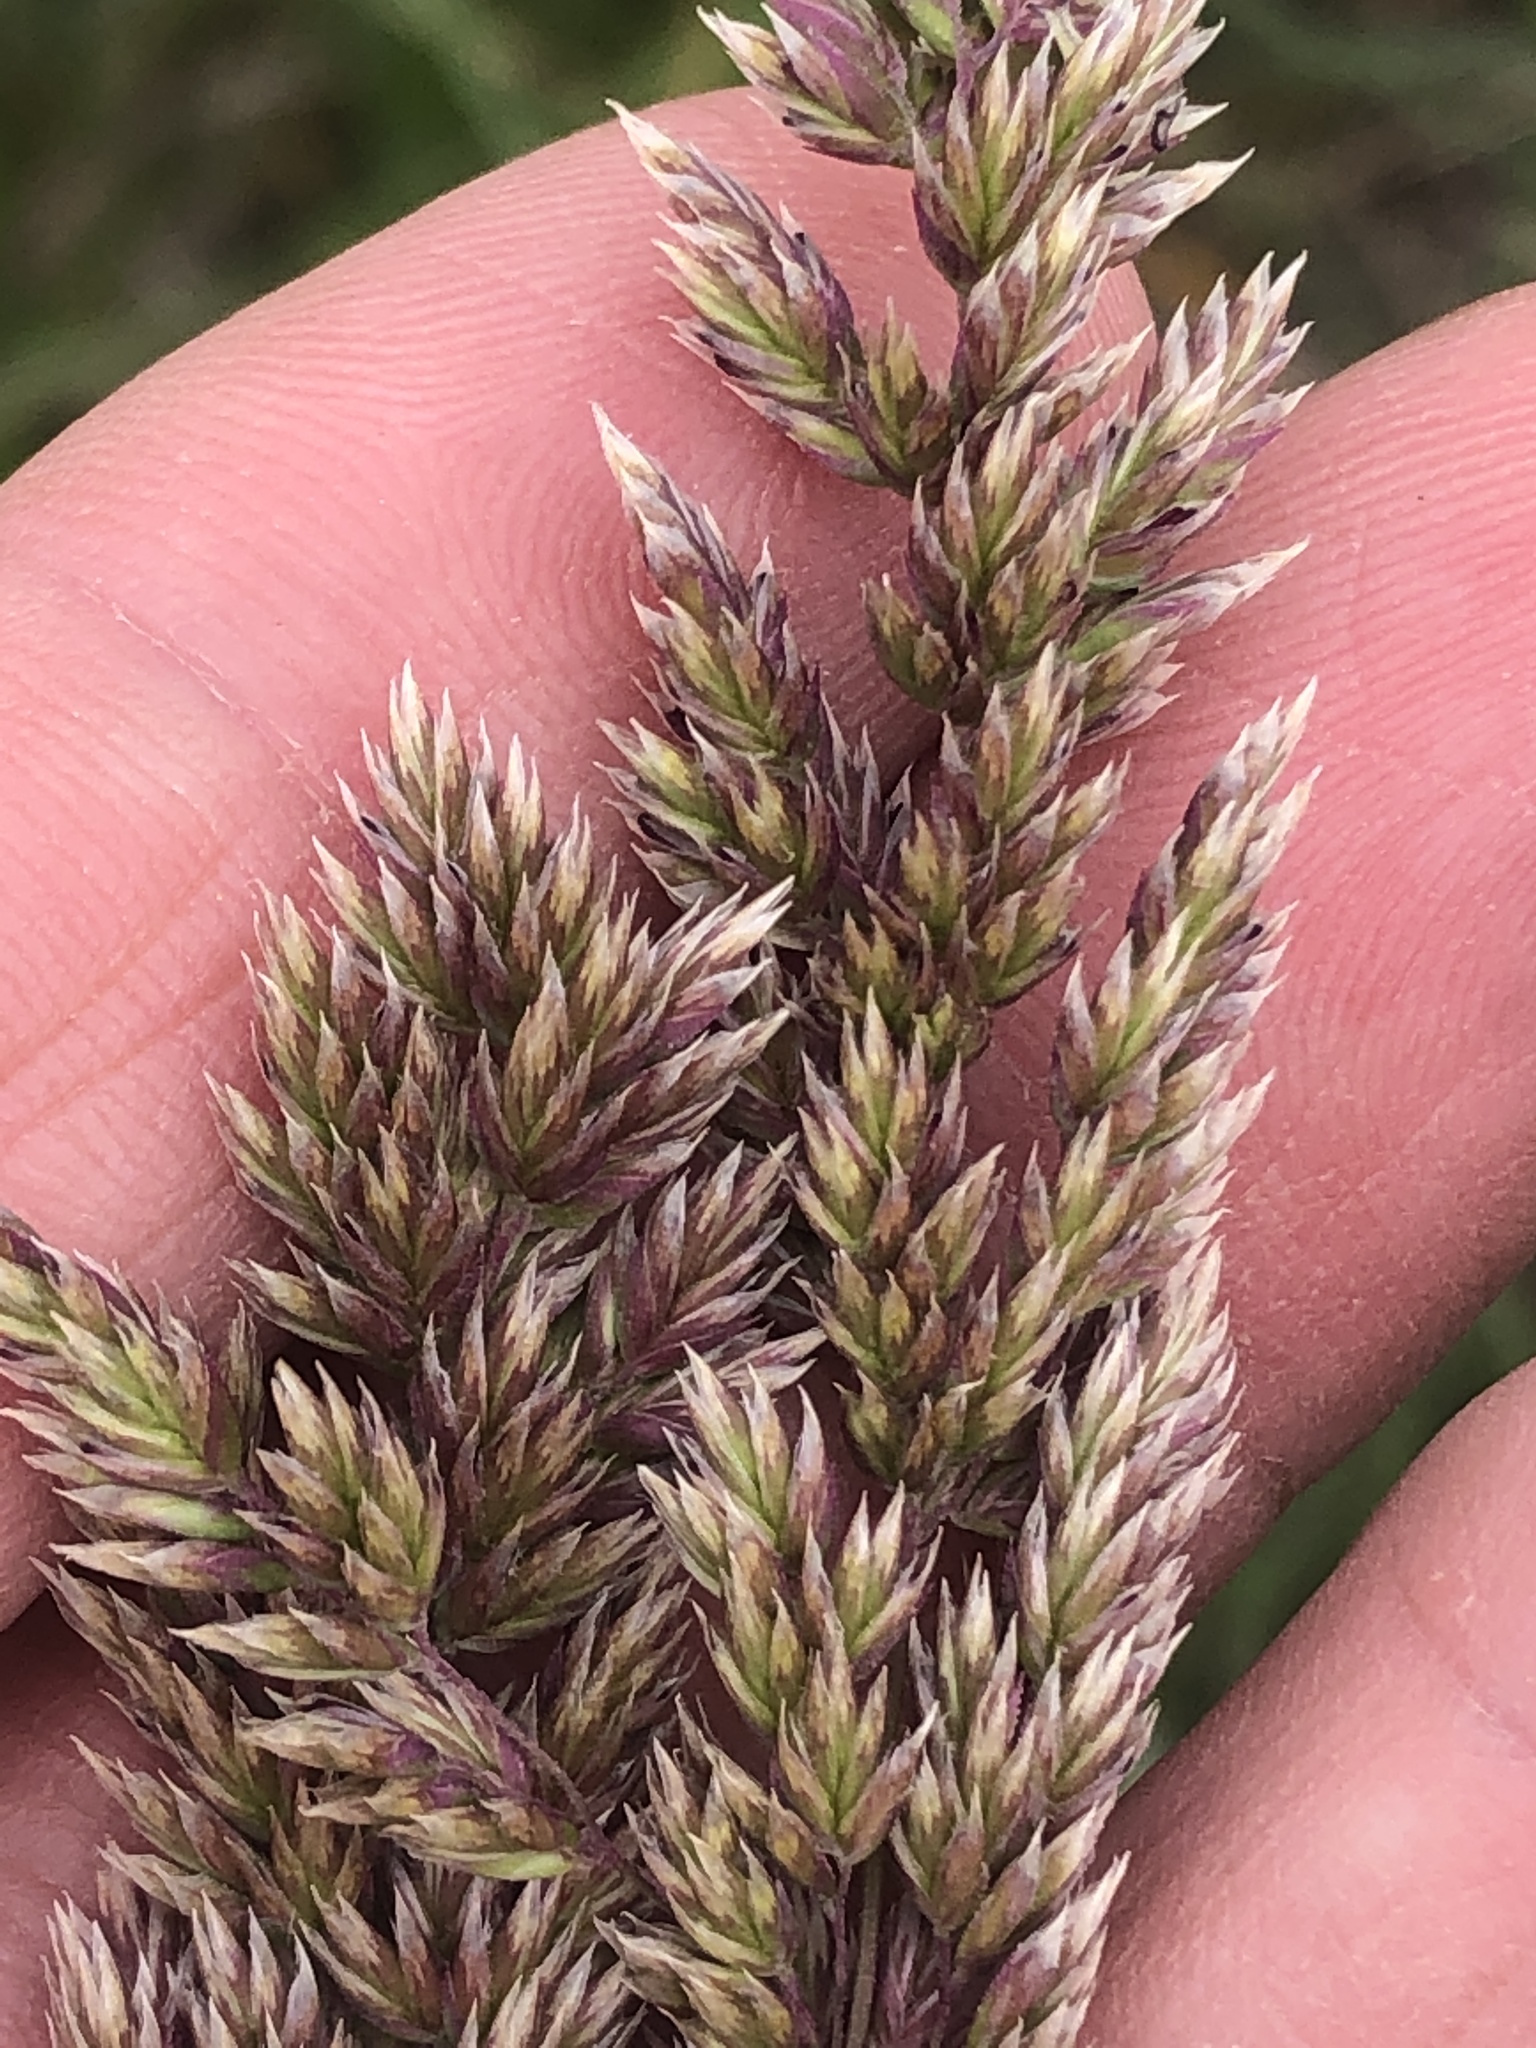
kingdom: Plantae
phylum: Tracheophyta
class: Liliopsida
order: Poales
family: Poaceae
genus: Poa
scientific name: Poa arachnifera
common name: Texas bluegrass
